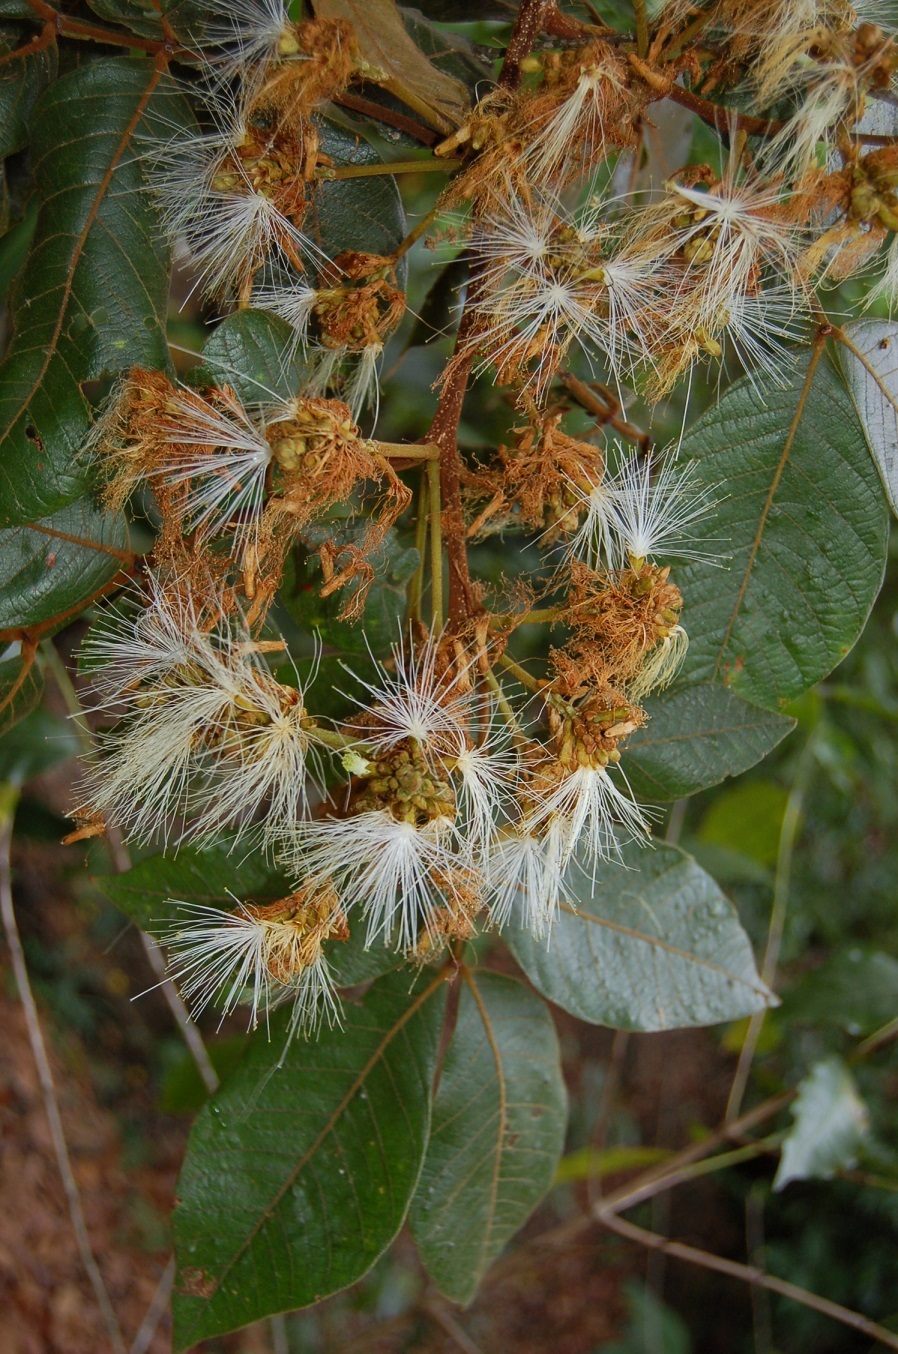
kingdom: Plantae
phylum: Tracheophyta
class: Magnoliopsida
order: Fabales
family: Fabaceae
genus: Inga
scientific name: Inga edulis
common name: Ice cream bean
